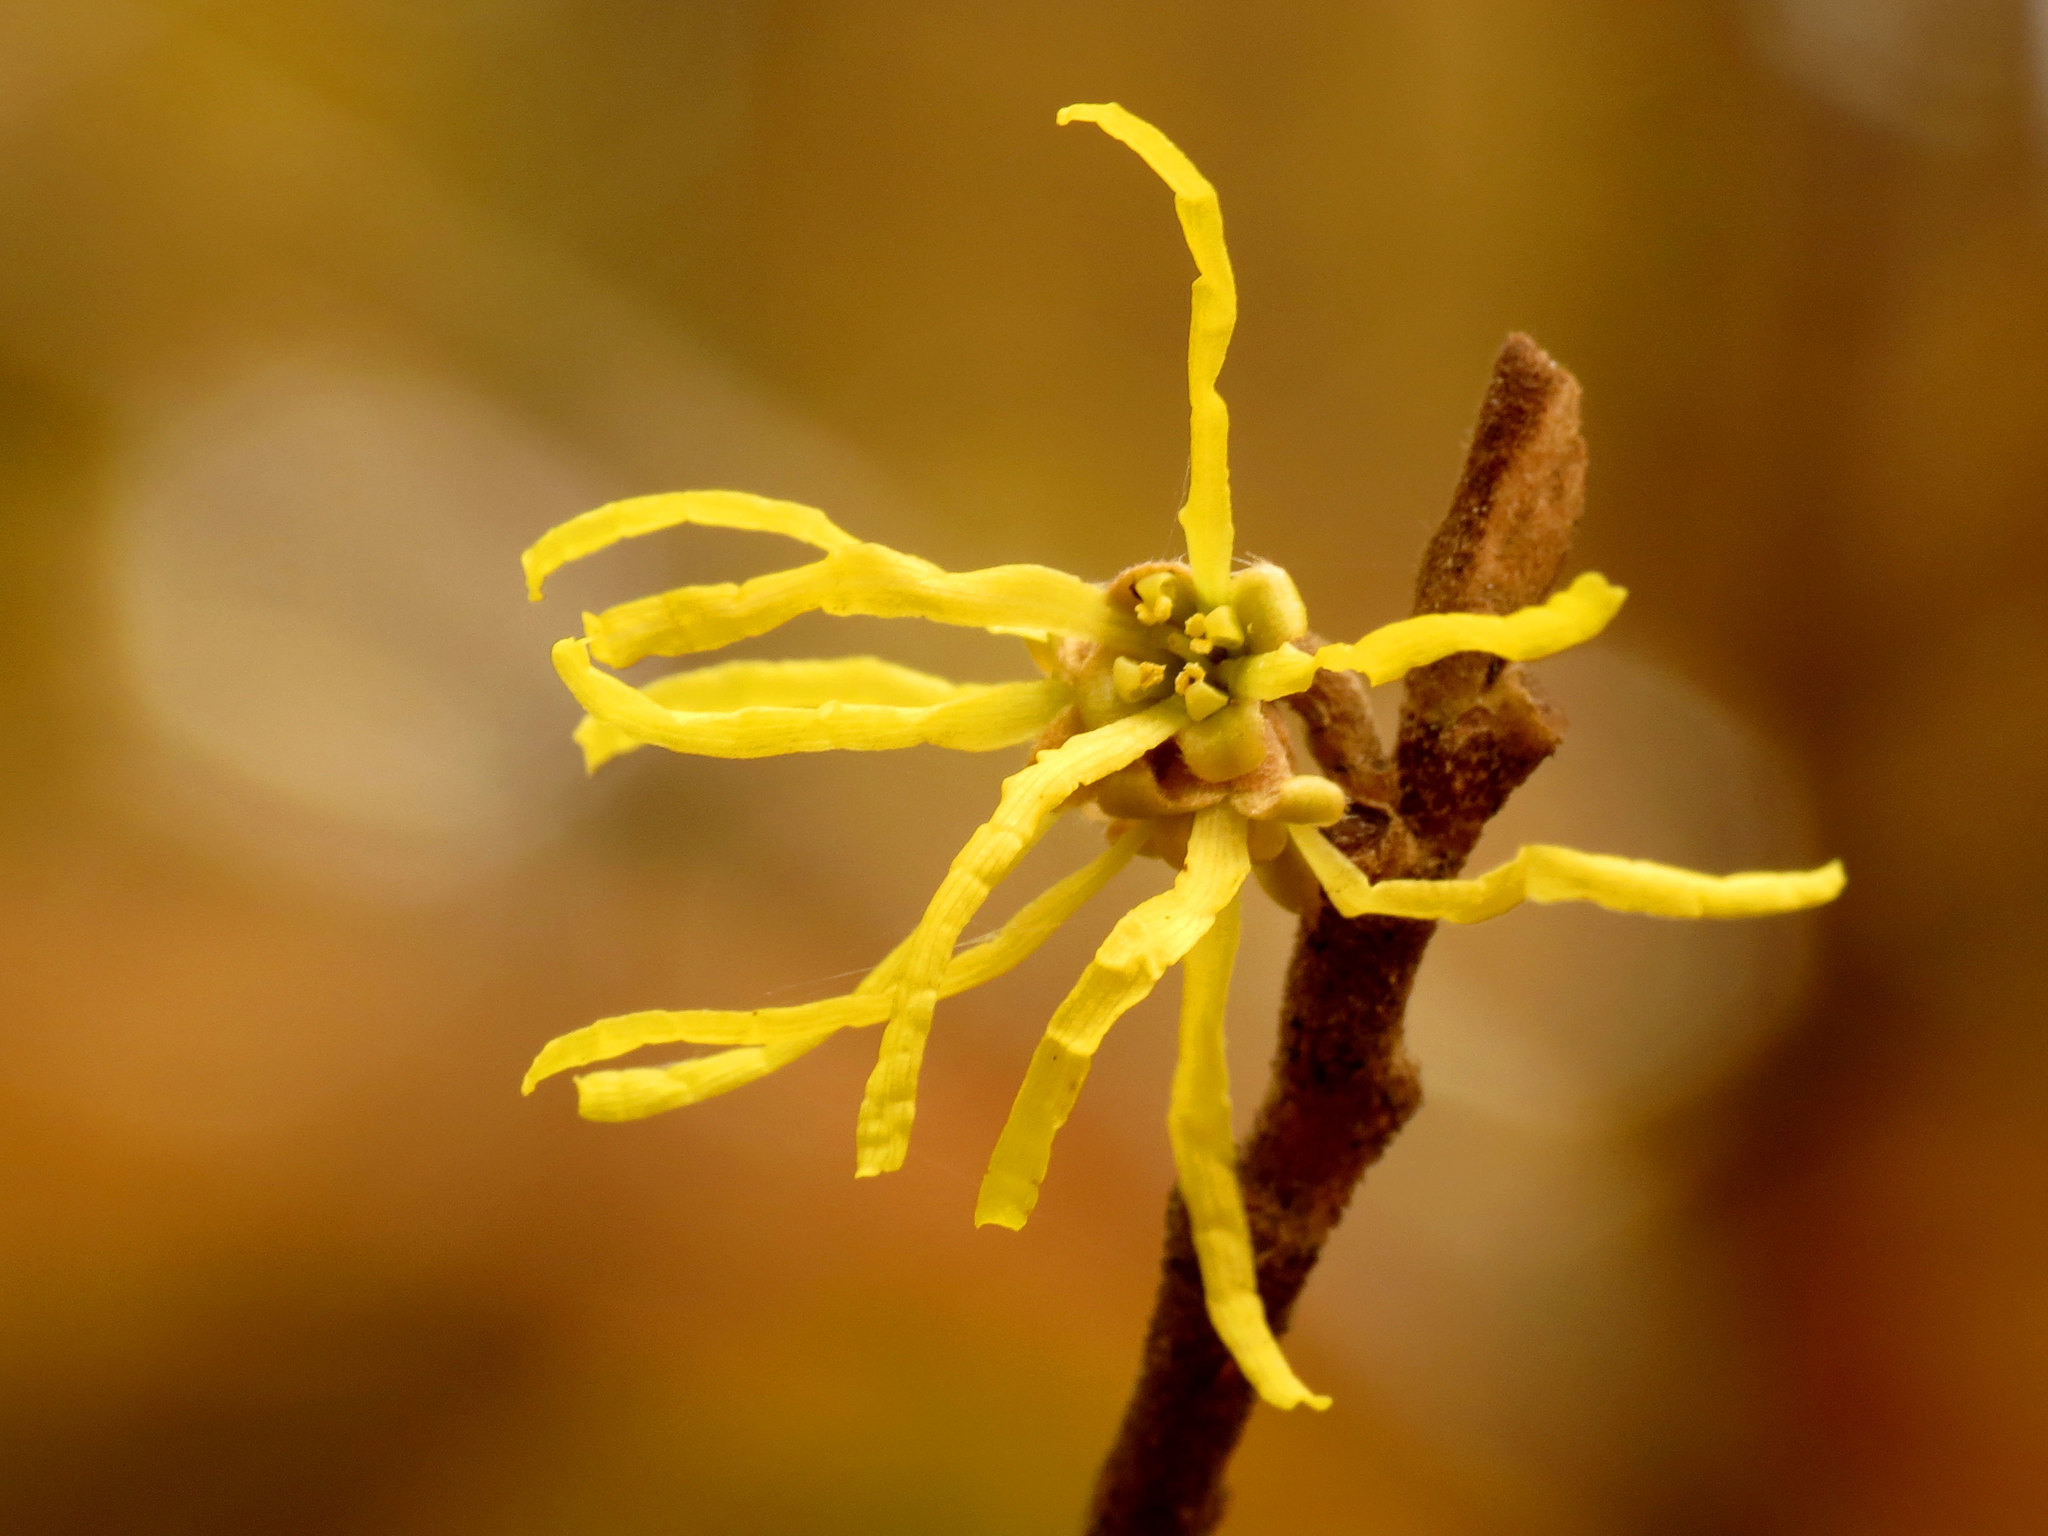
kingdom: Plantae
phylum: Tracheophyta
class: Magnoliopsida
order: Saxifragales
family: Hamamelidaceae
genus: Hamamelis
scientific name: Hamamelis virginiana
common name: Witch-hazel
